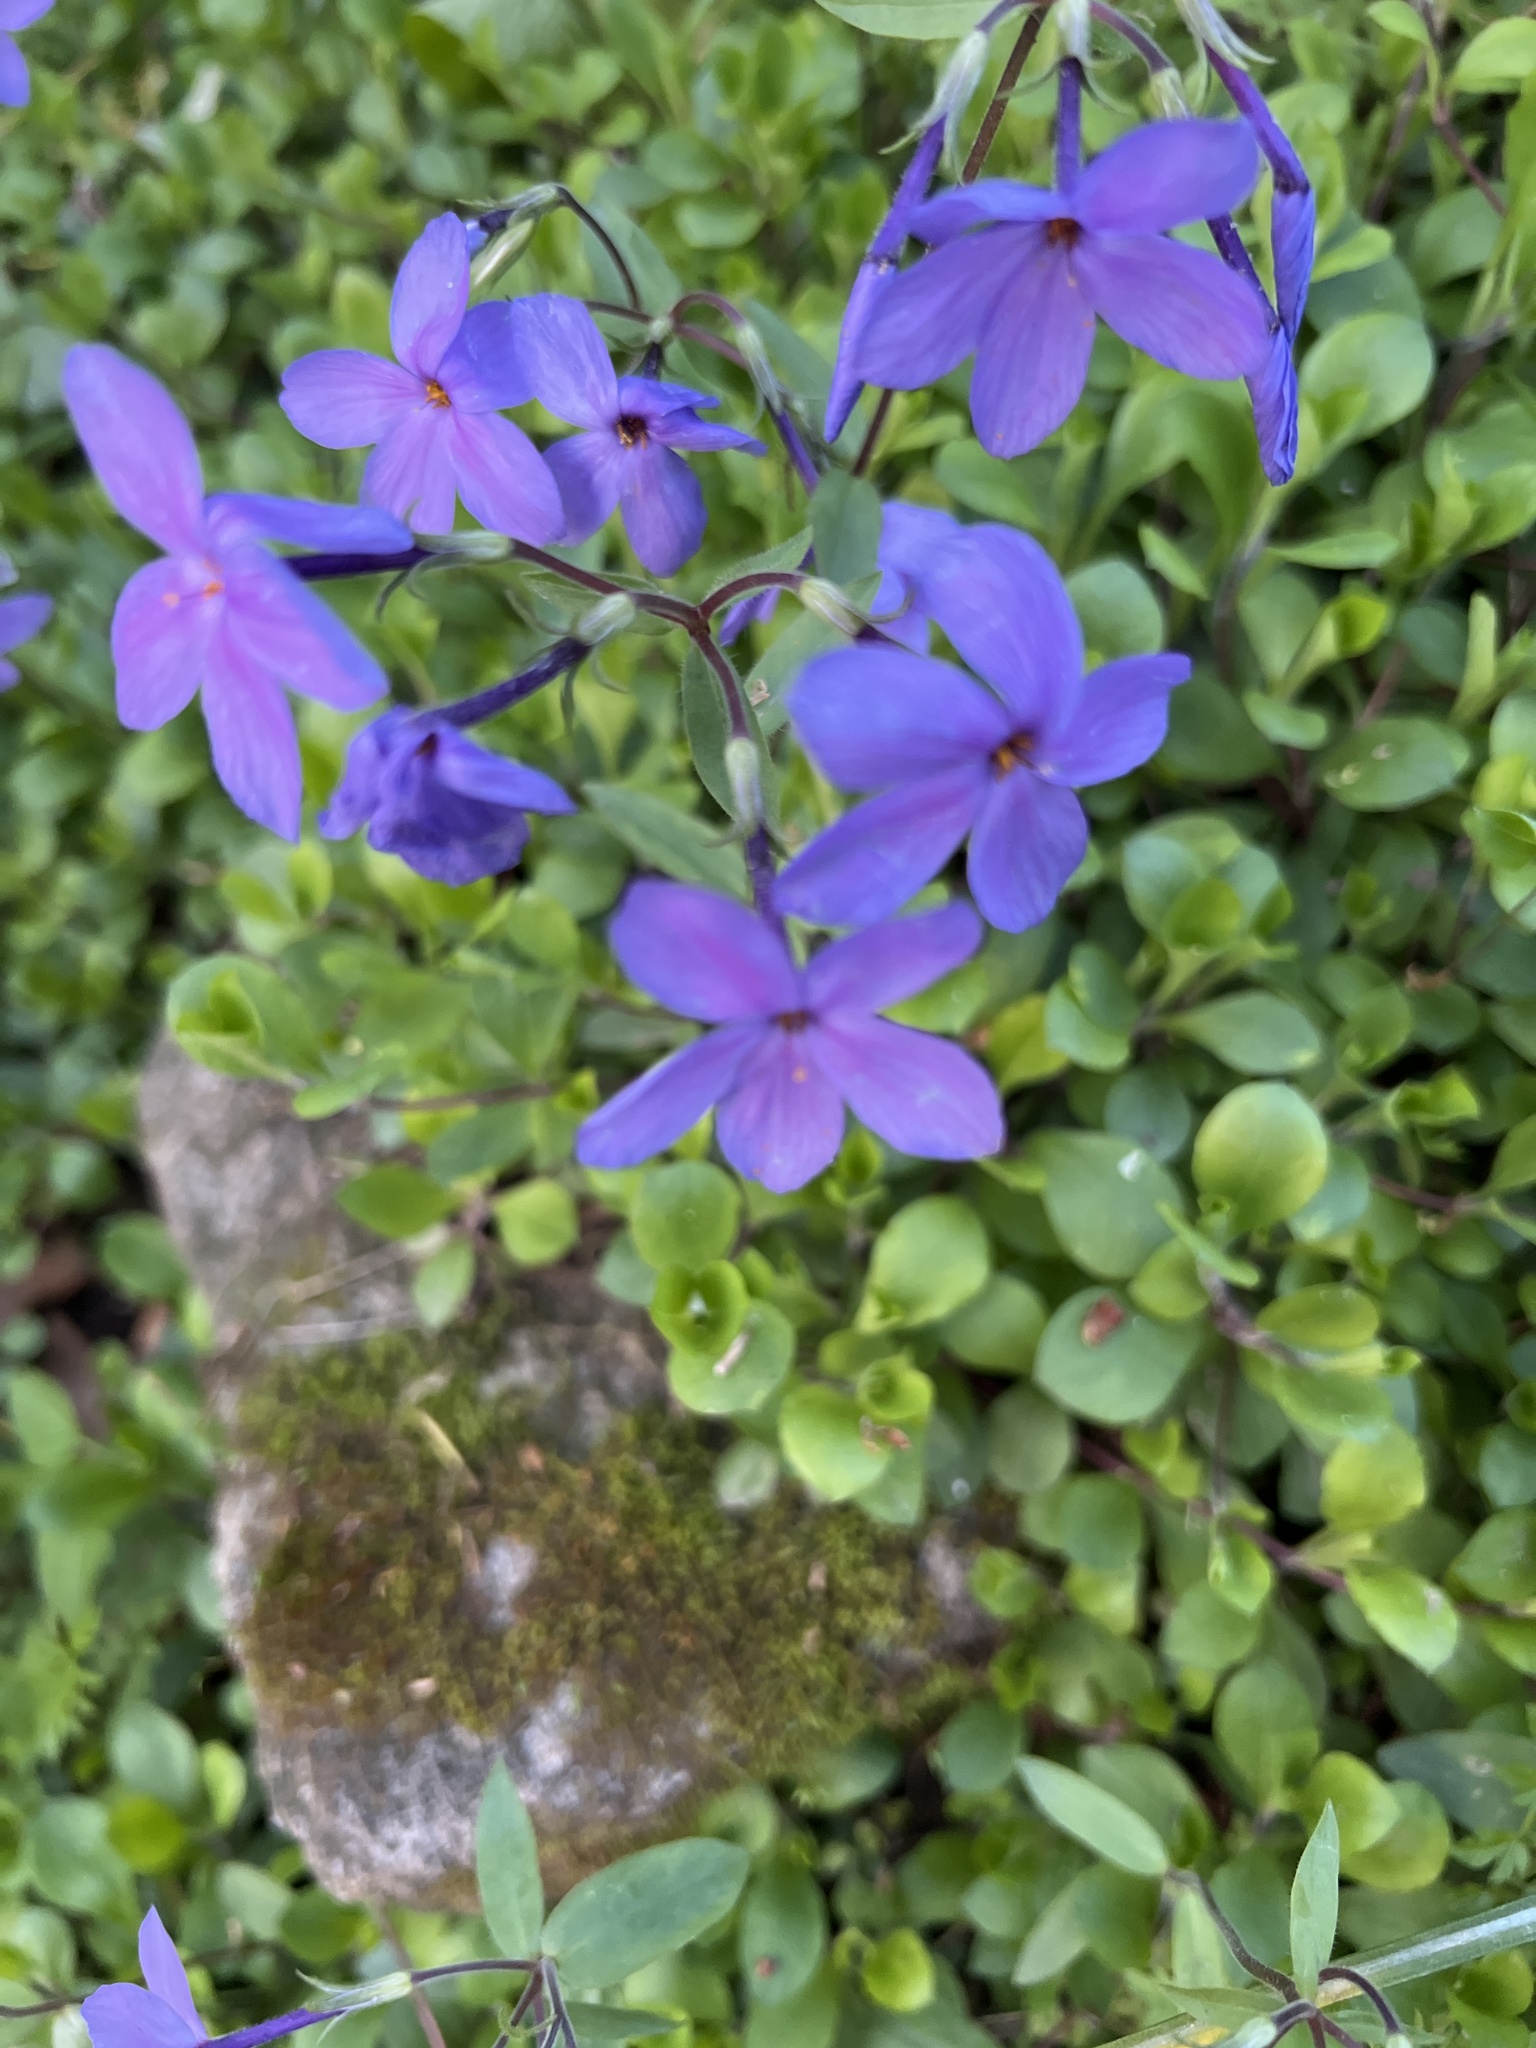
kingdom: Plantae
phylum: Tracheophyta
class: Magnoliopsida
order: Ericales
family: Polemoniaceae
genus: Phlox
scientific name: Phlox stolonifera
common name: Creeping phlox
